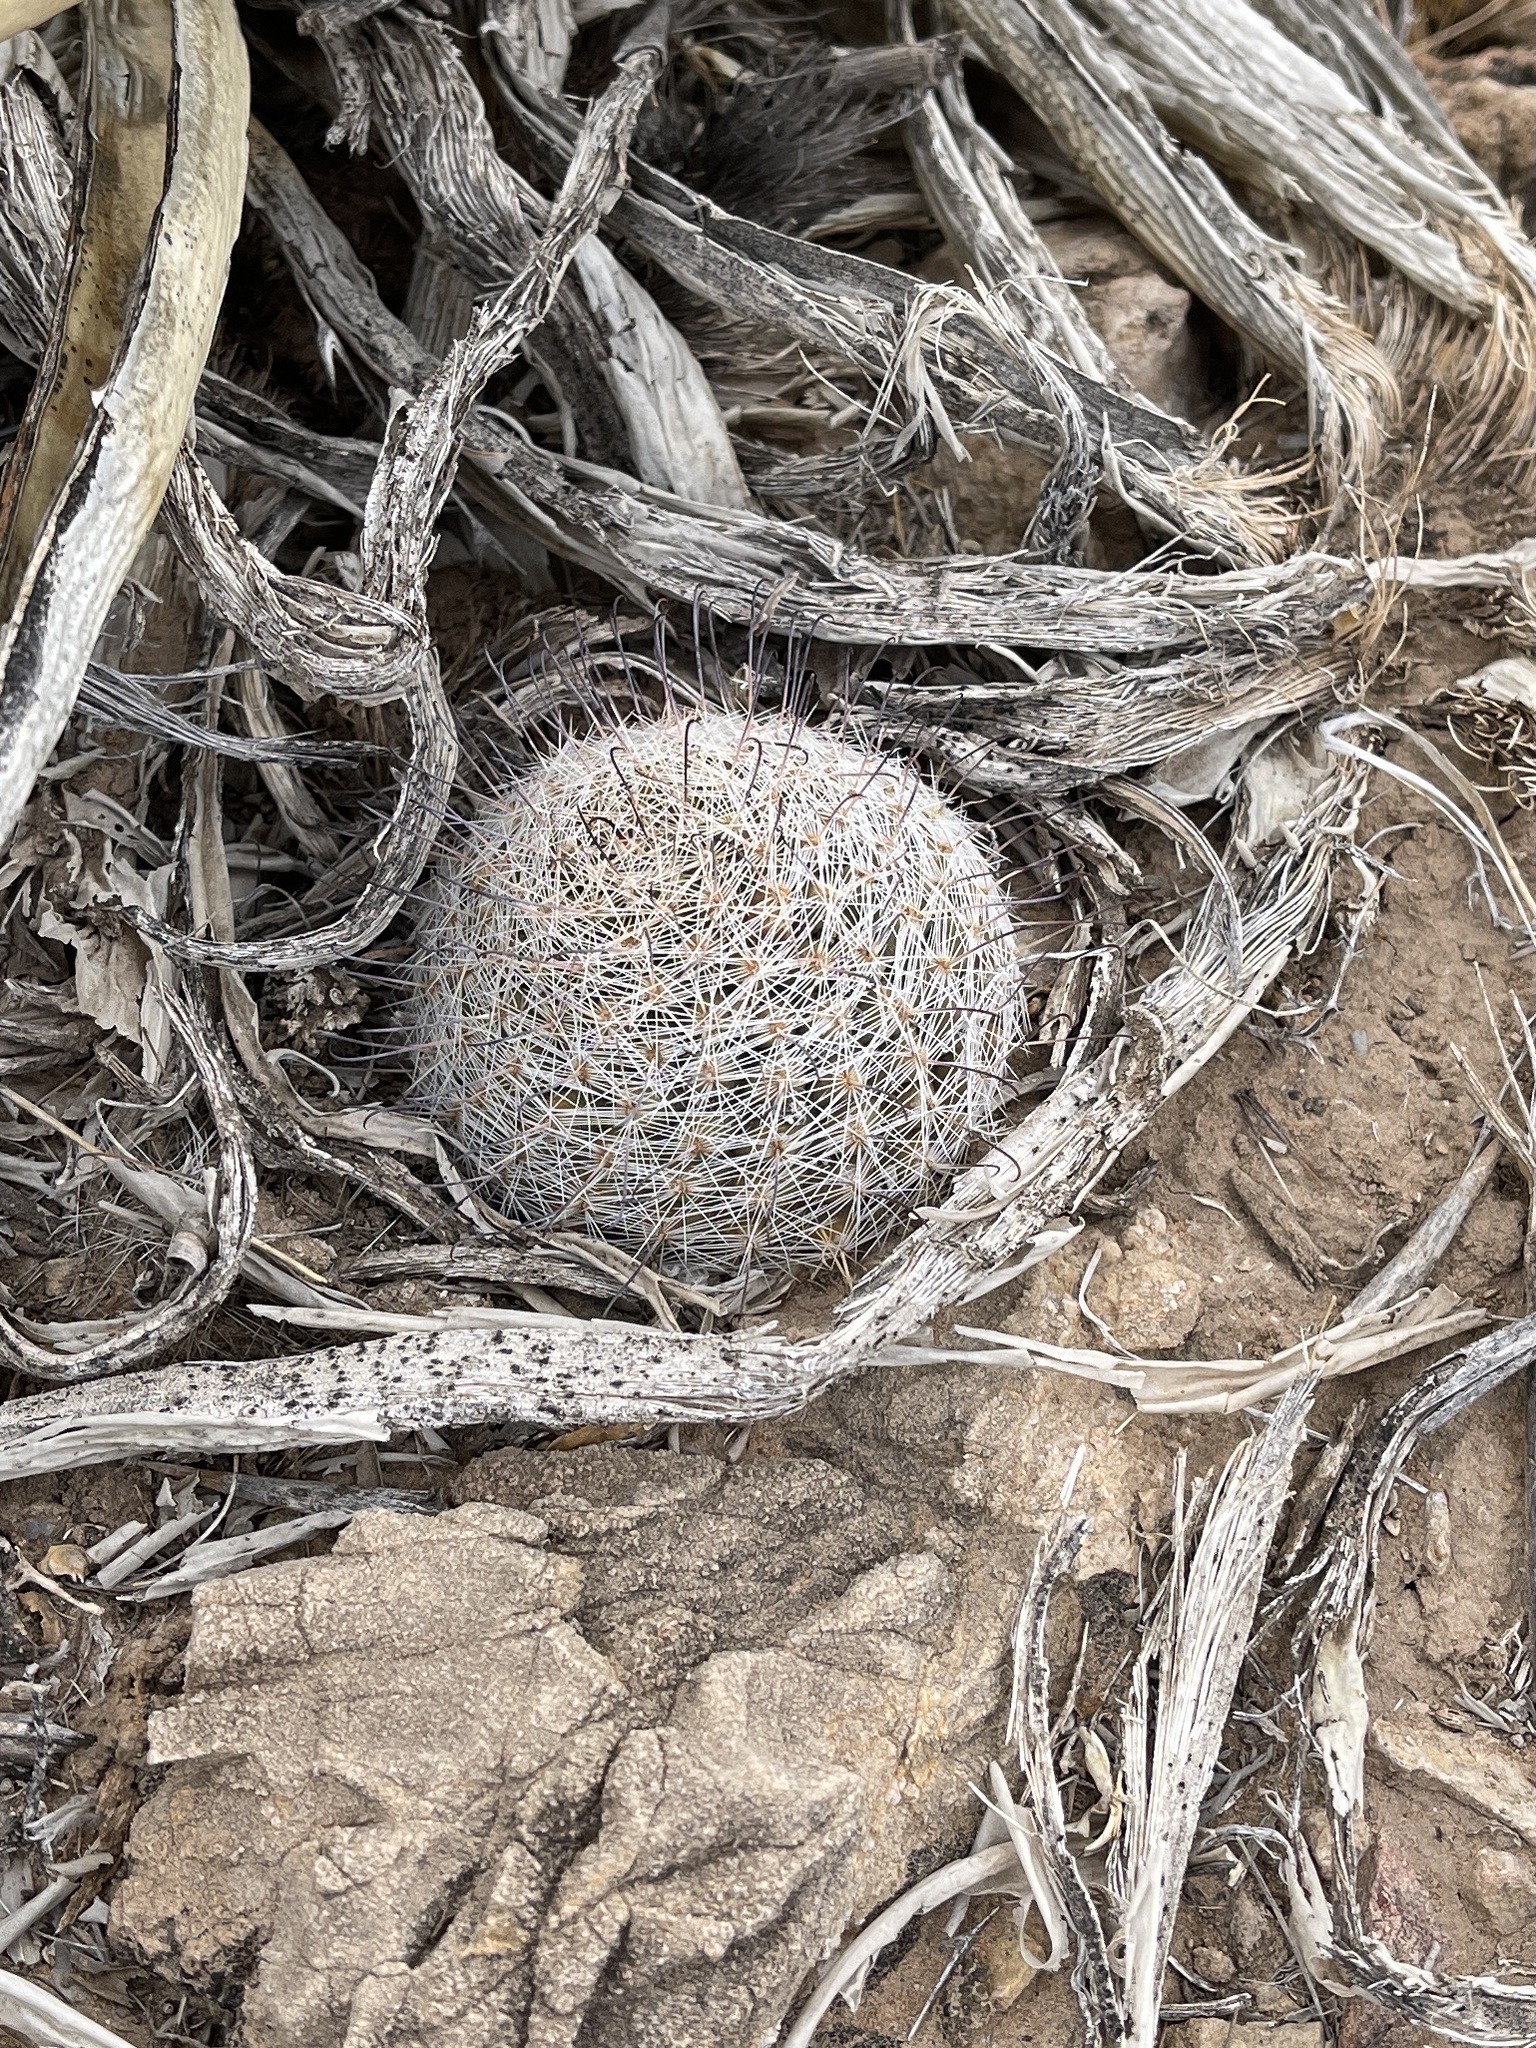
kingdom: Plantae
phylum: Tracheophyta
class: Magnoliopsida
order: Caryophyllales
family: Cactaceae
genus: Cochemiea
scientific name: Cochemiea grahamii
